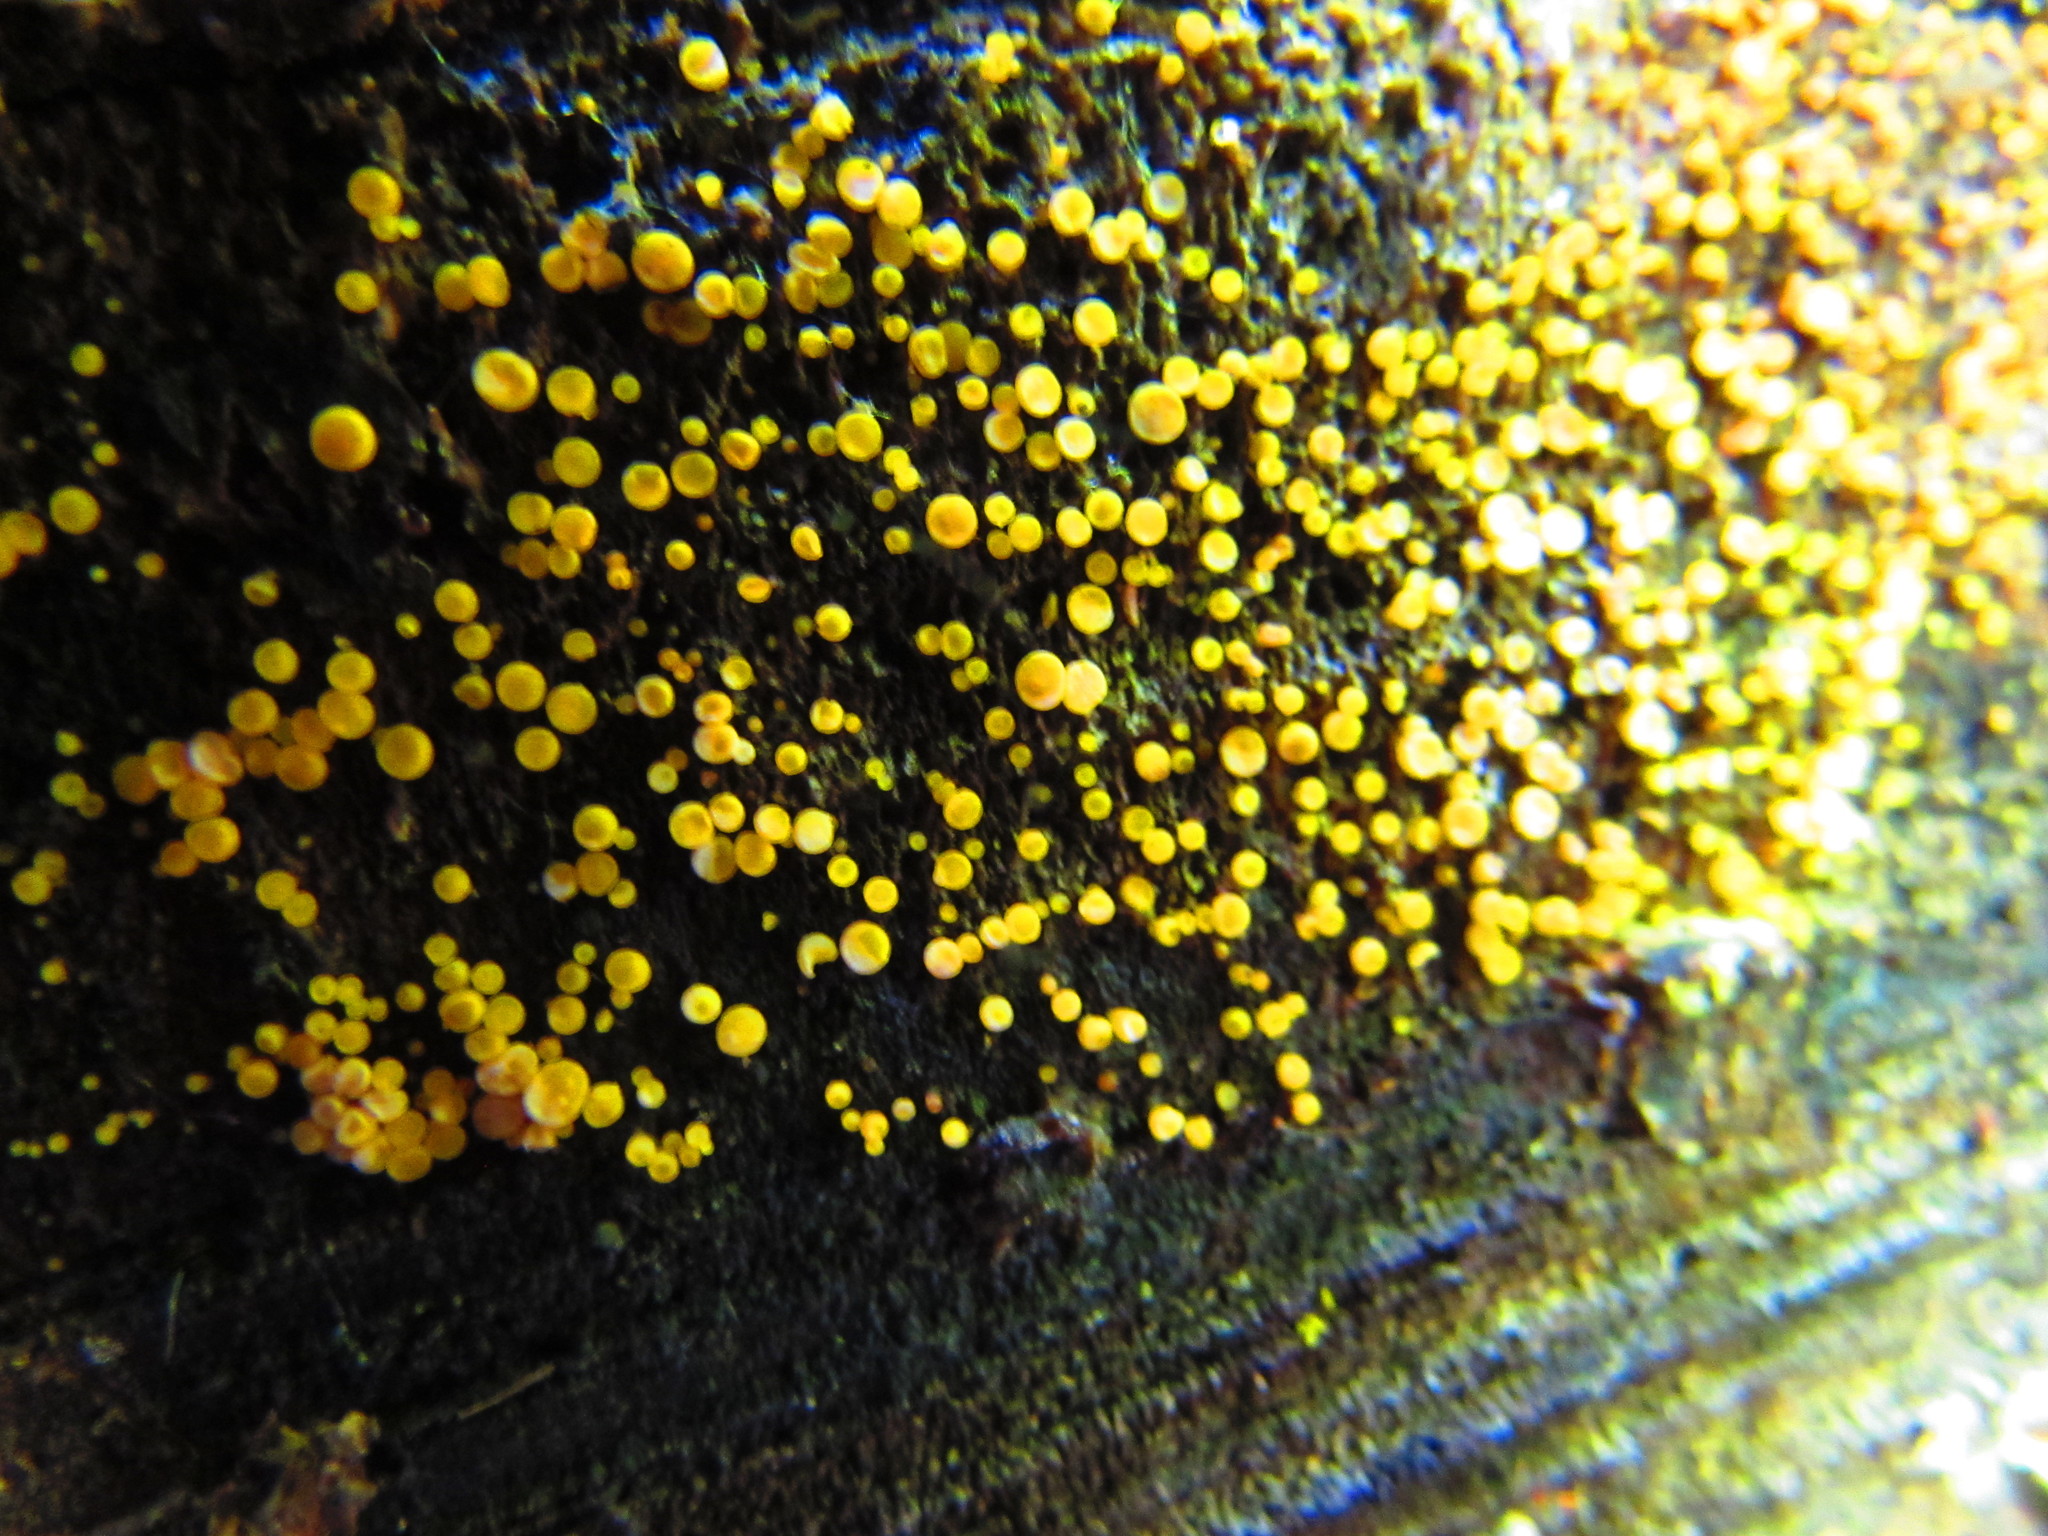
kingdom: Fungi
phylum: Ascomycota
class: Leotiomycetes
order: Helotiales
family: Pezizellaceae
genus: Calycina
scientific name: Calycina citrina
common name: Yellow fairy cups
